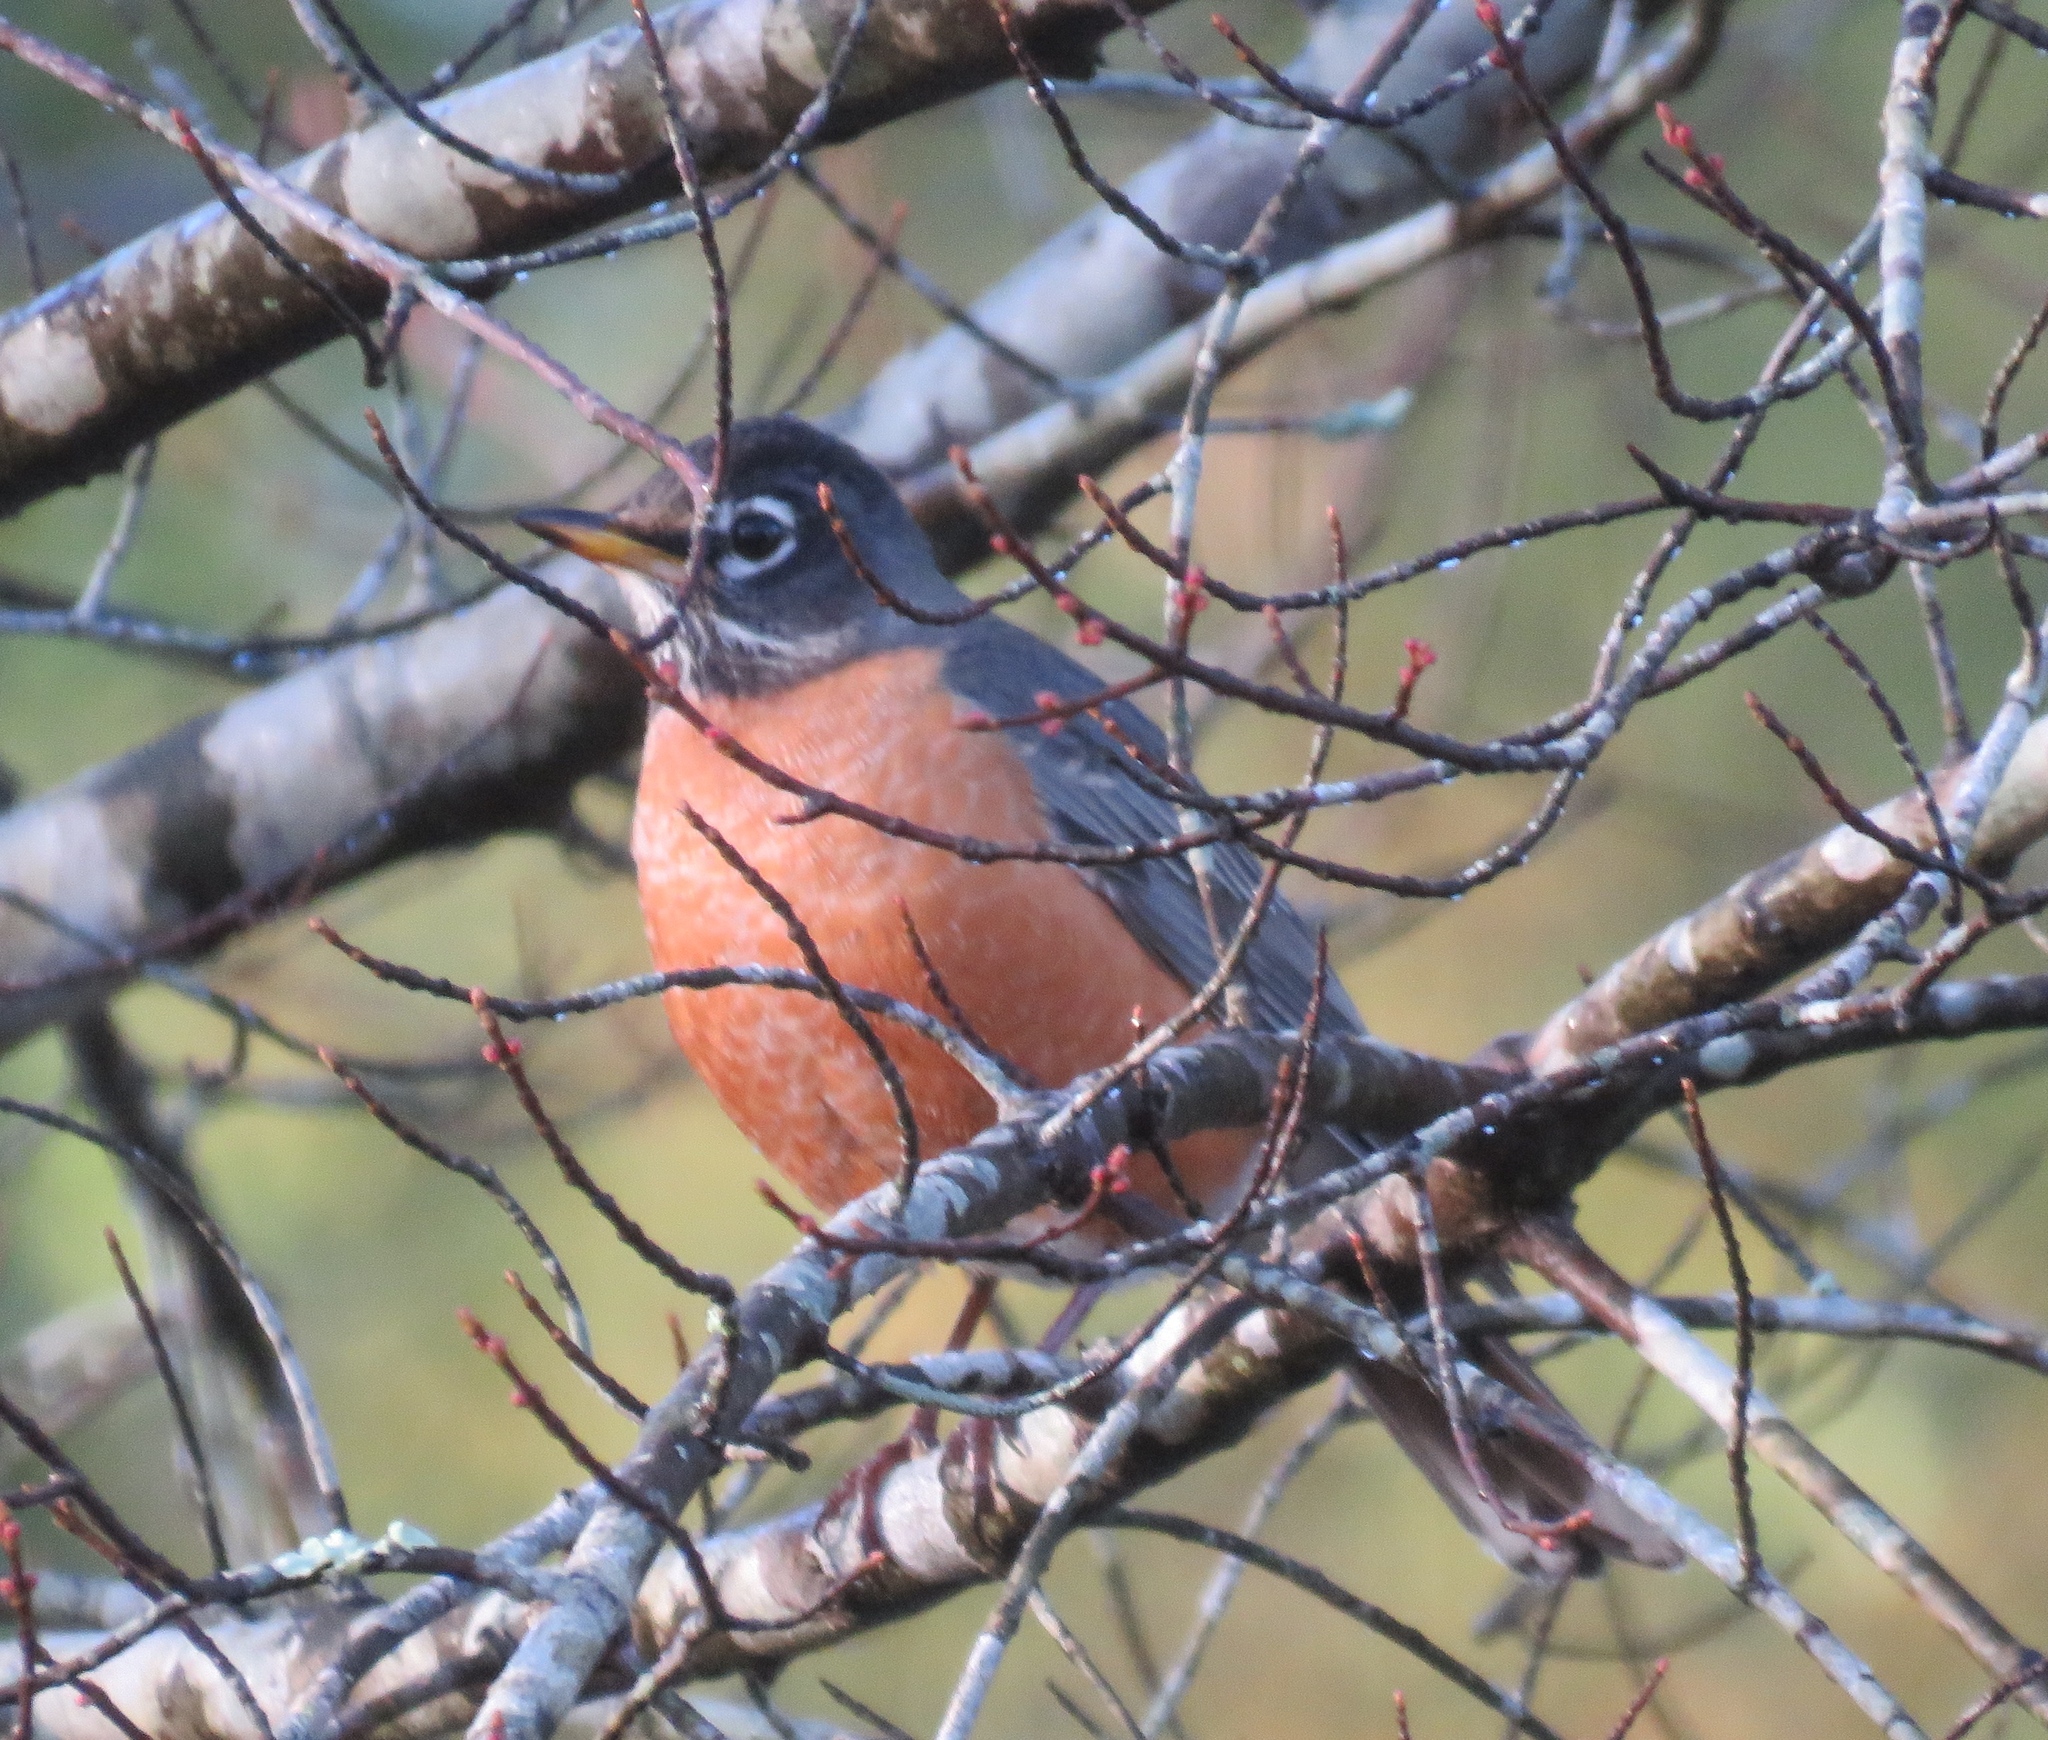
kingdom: Animalia
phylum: Chordata
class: Aves
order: Passeriformes
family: Turdidae
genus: Turdus
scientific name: Turdus migratorius
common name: American robin
